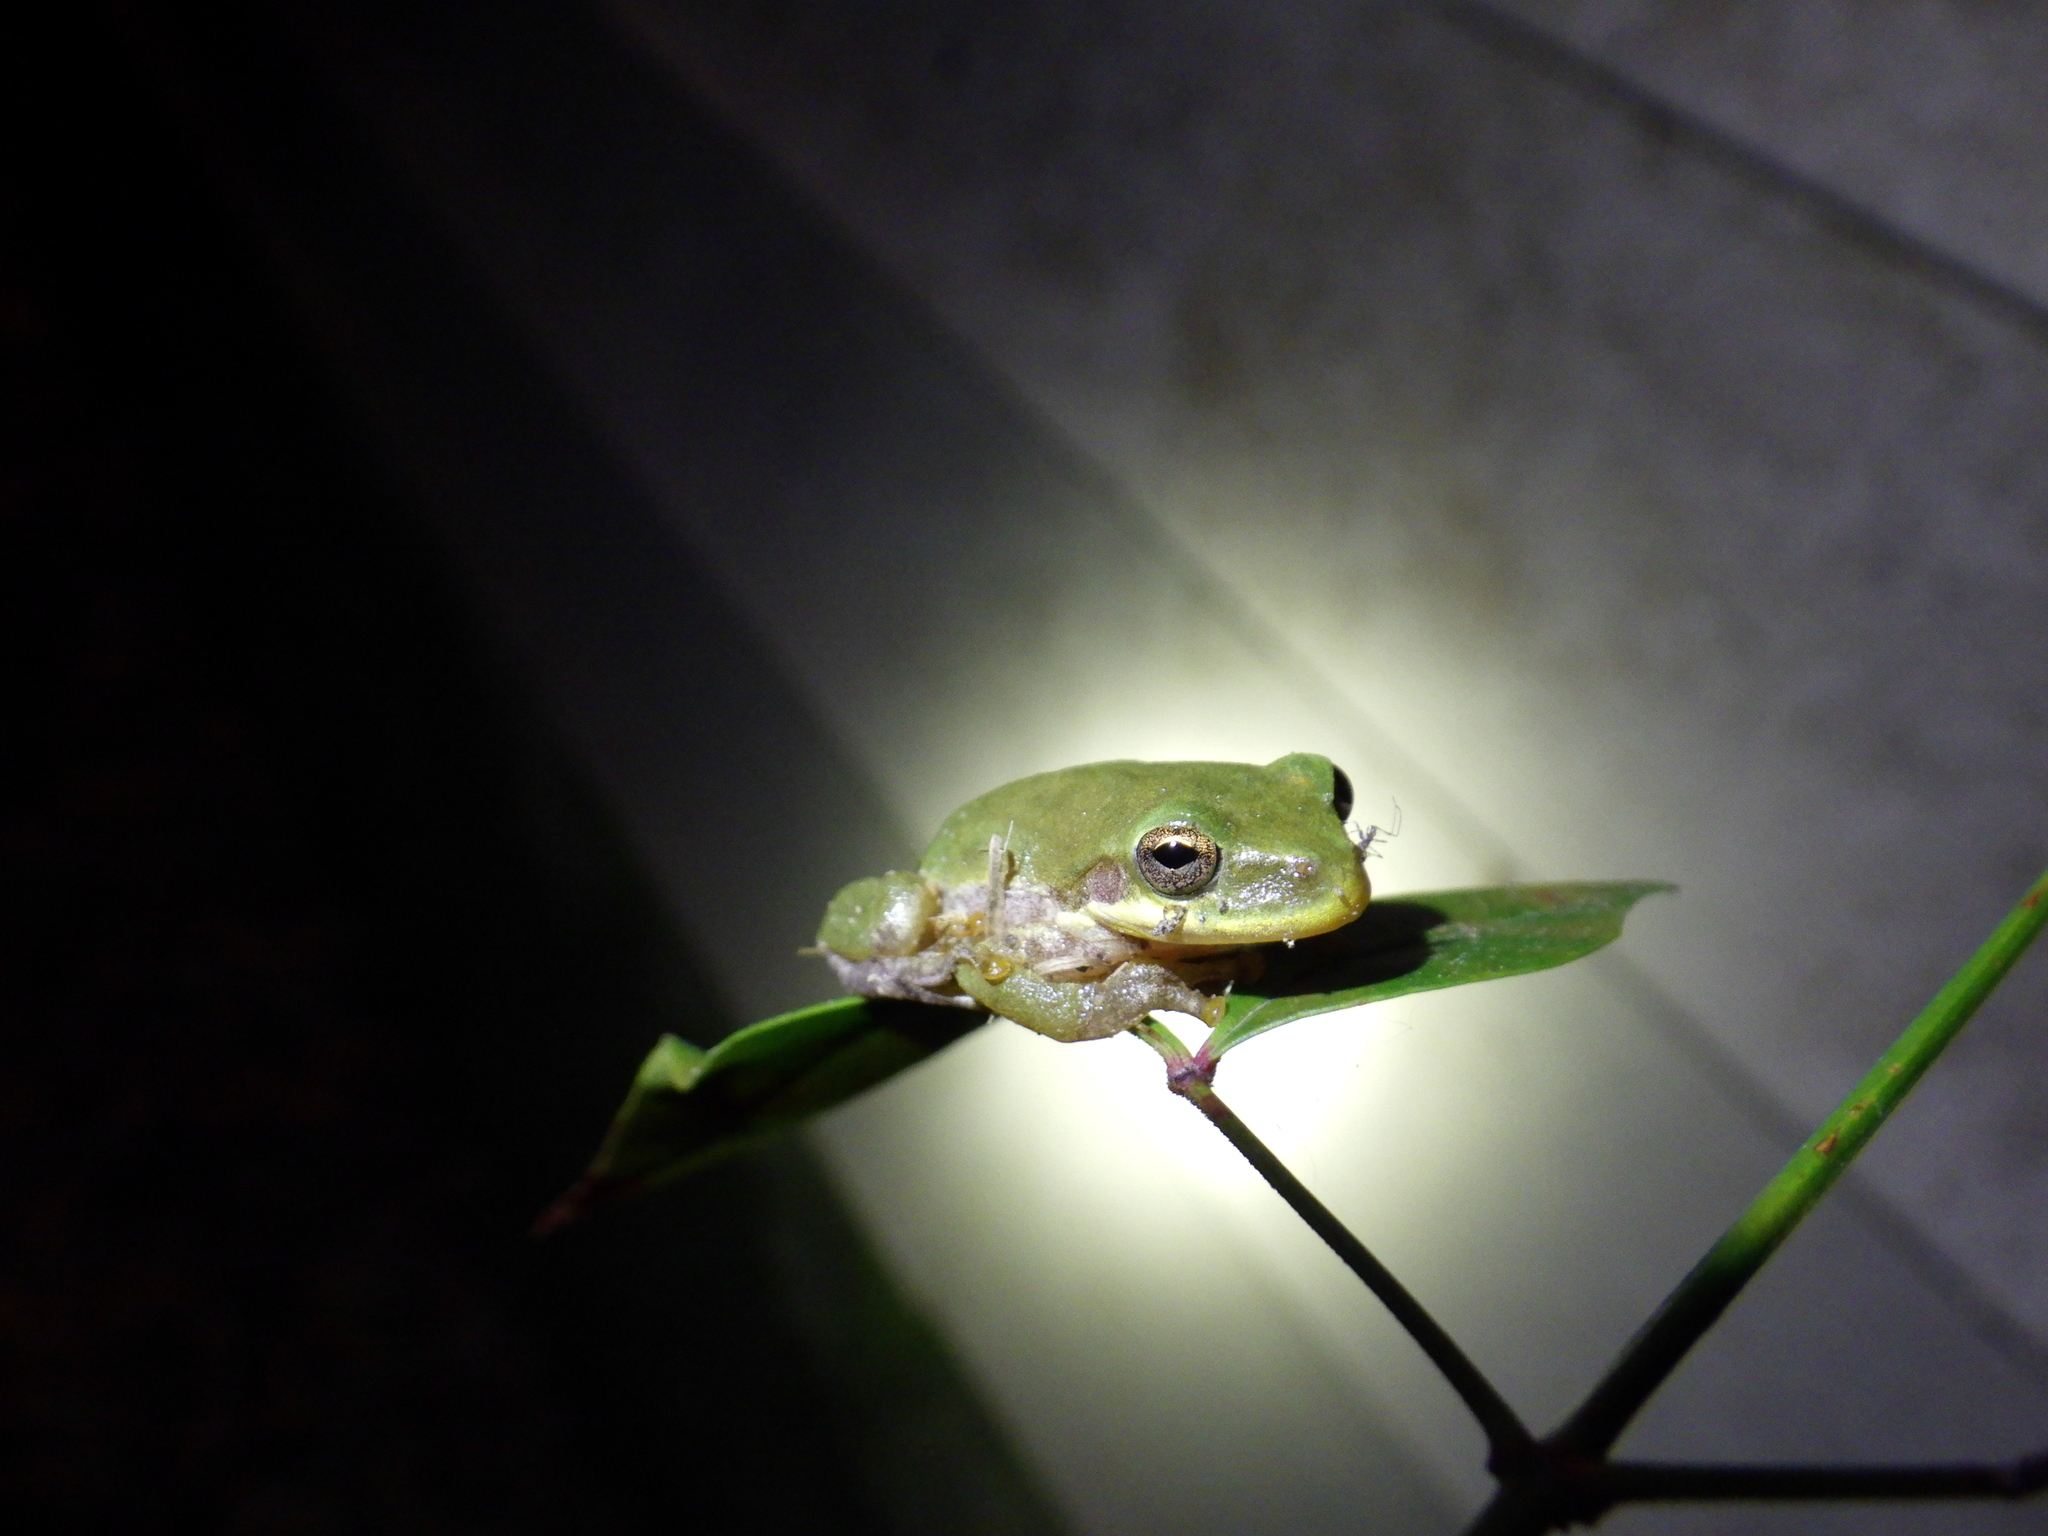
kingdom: Animalia
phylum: Chordata
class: Amphibia
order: Anura
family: Hylidae
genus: Dryophytes
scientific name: Dryophytes squirellus
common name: Squirrel treefrog
